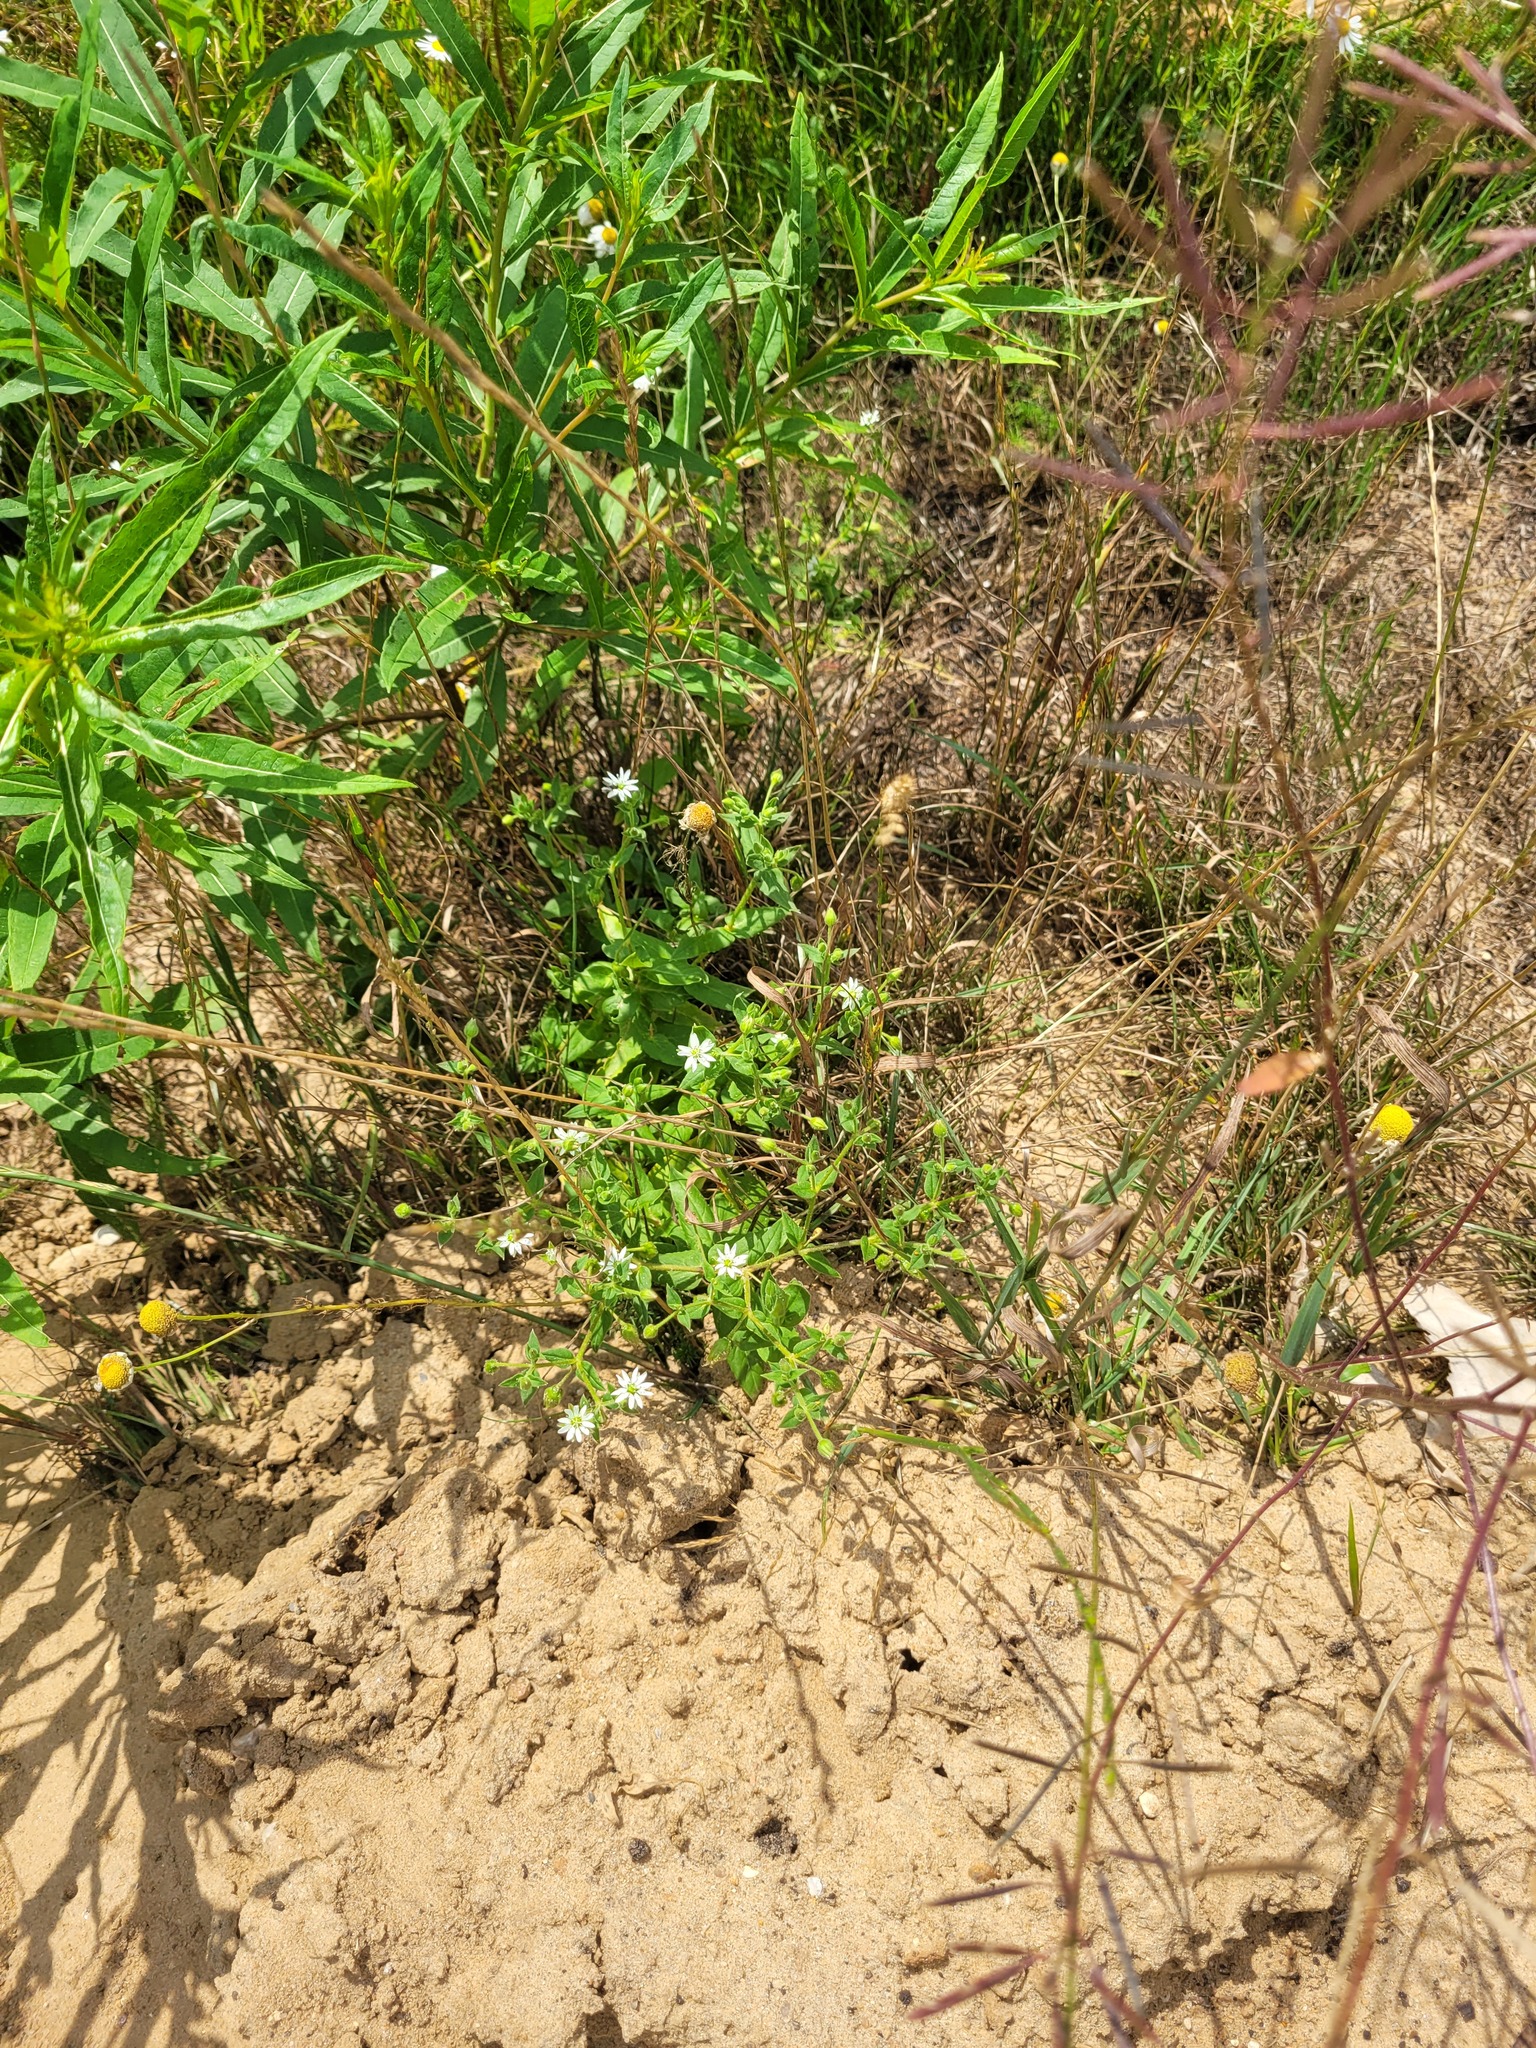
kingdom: Plantae
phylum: Tracheophyta
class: Magnoliopsida
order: Caryophyllales
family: Caryophyllaceae
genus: Stellaria
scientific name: Stellaria aquatica
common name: Water chickweed
